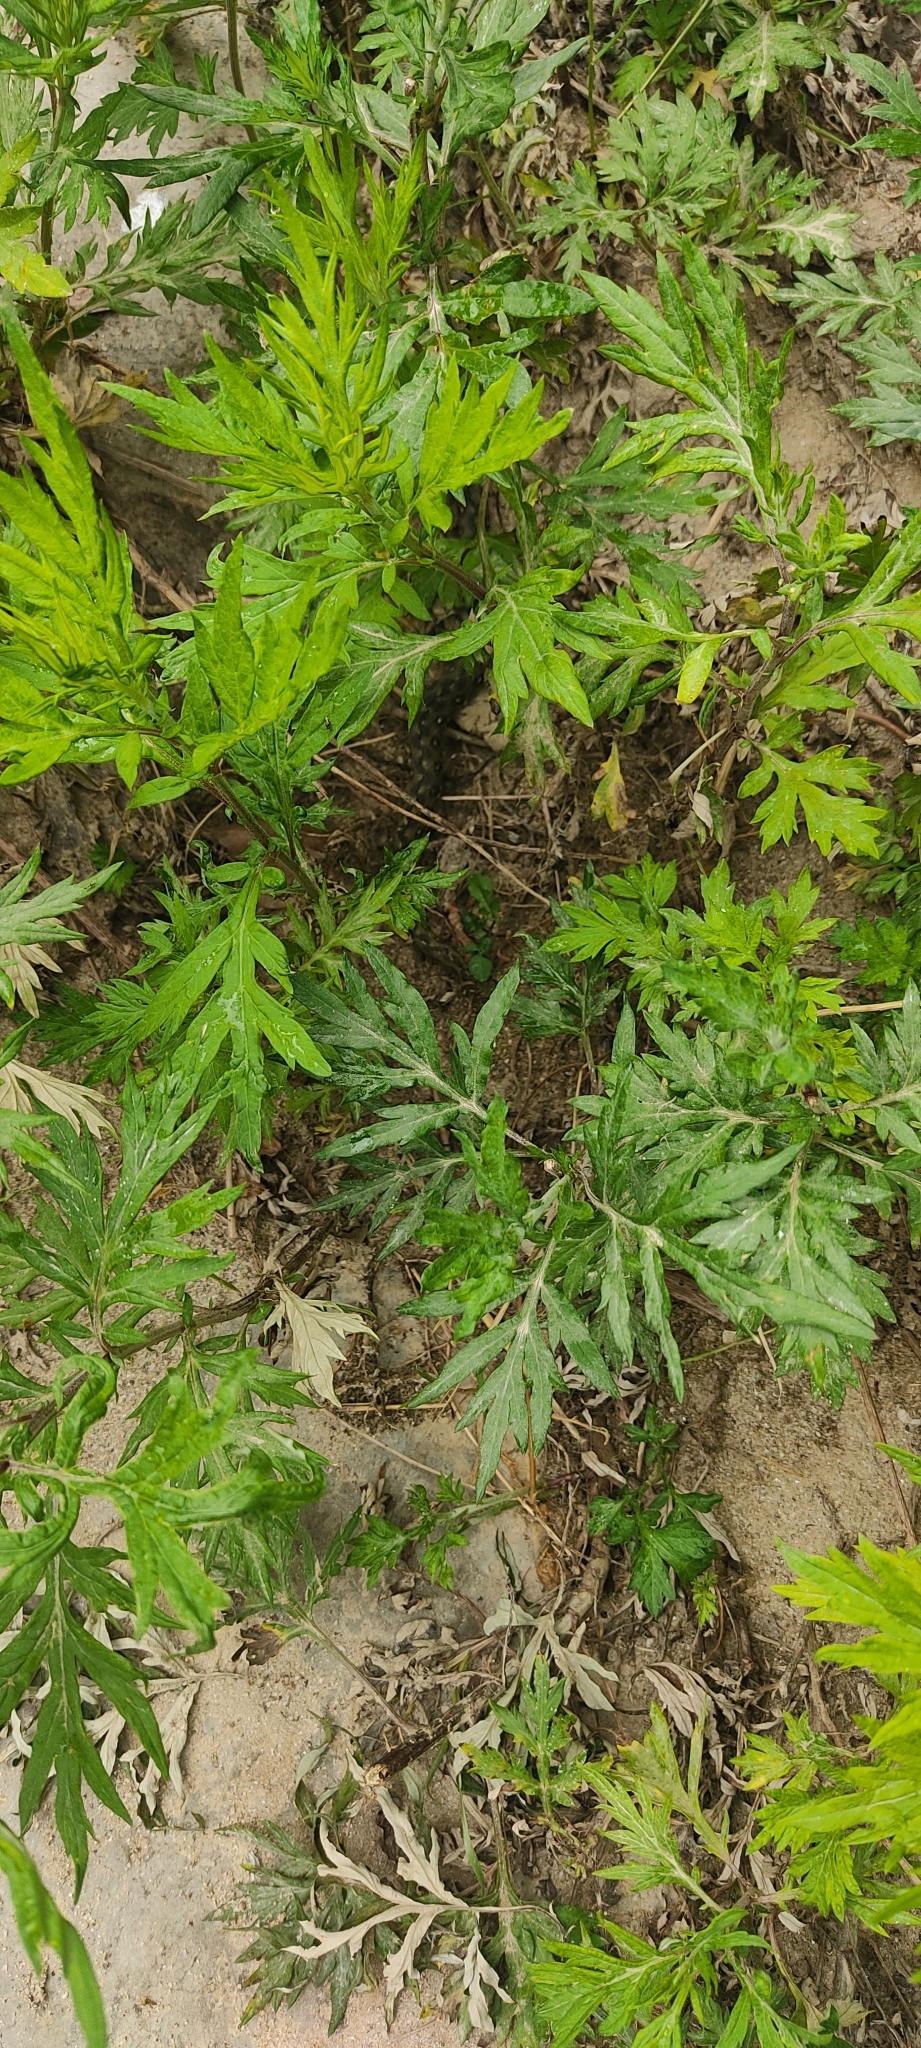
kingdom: Animalia
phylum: Chordata
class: Squamata
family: Colubridae
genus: Natrix
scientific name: Natrix maura
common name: Viperine water snake
